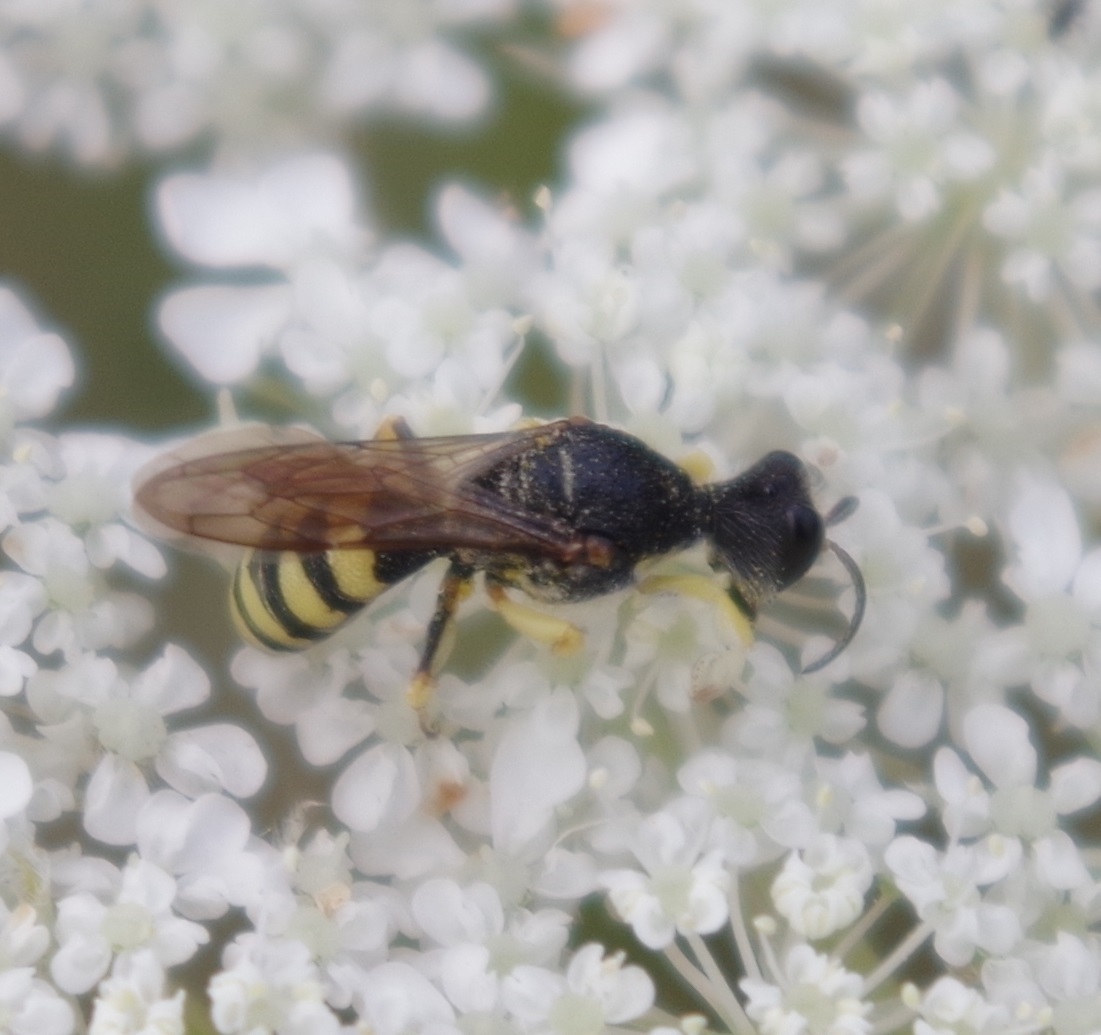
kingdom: Animalia
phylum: Arthropoda
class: Insecta
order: Hymenoptera
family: Crabronidae
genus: Lestica
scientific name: Lestica clypeata
